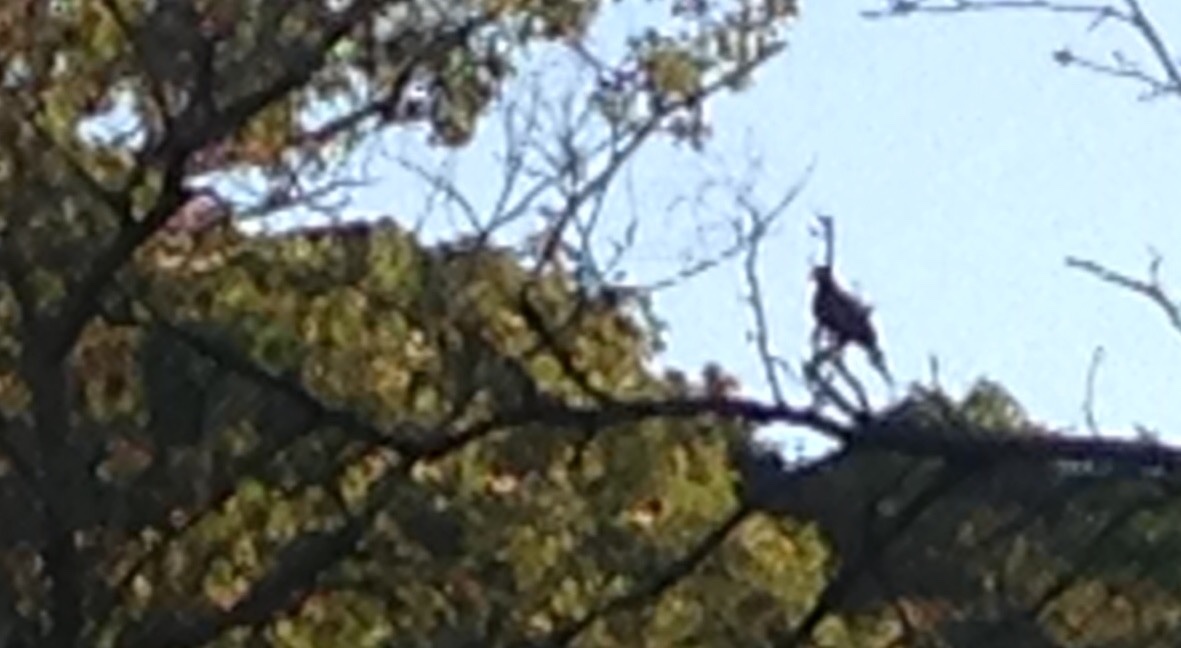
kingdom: Animalia
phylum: Chordata
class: Aves
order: Columbiformes
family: Columbidae
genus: Zenaida
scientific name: Zenaida macroura
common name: Mourning dove
